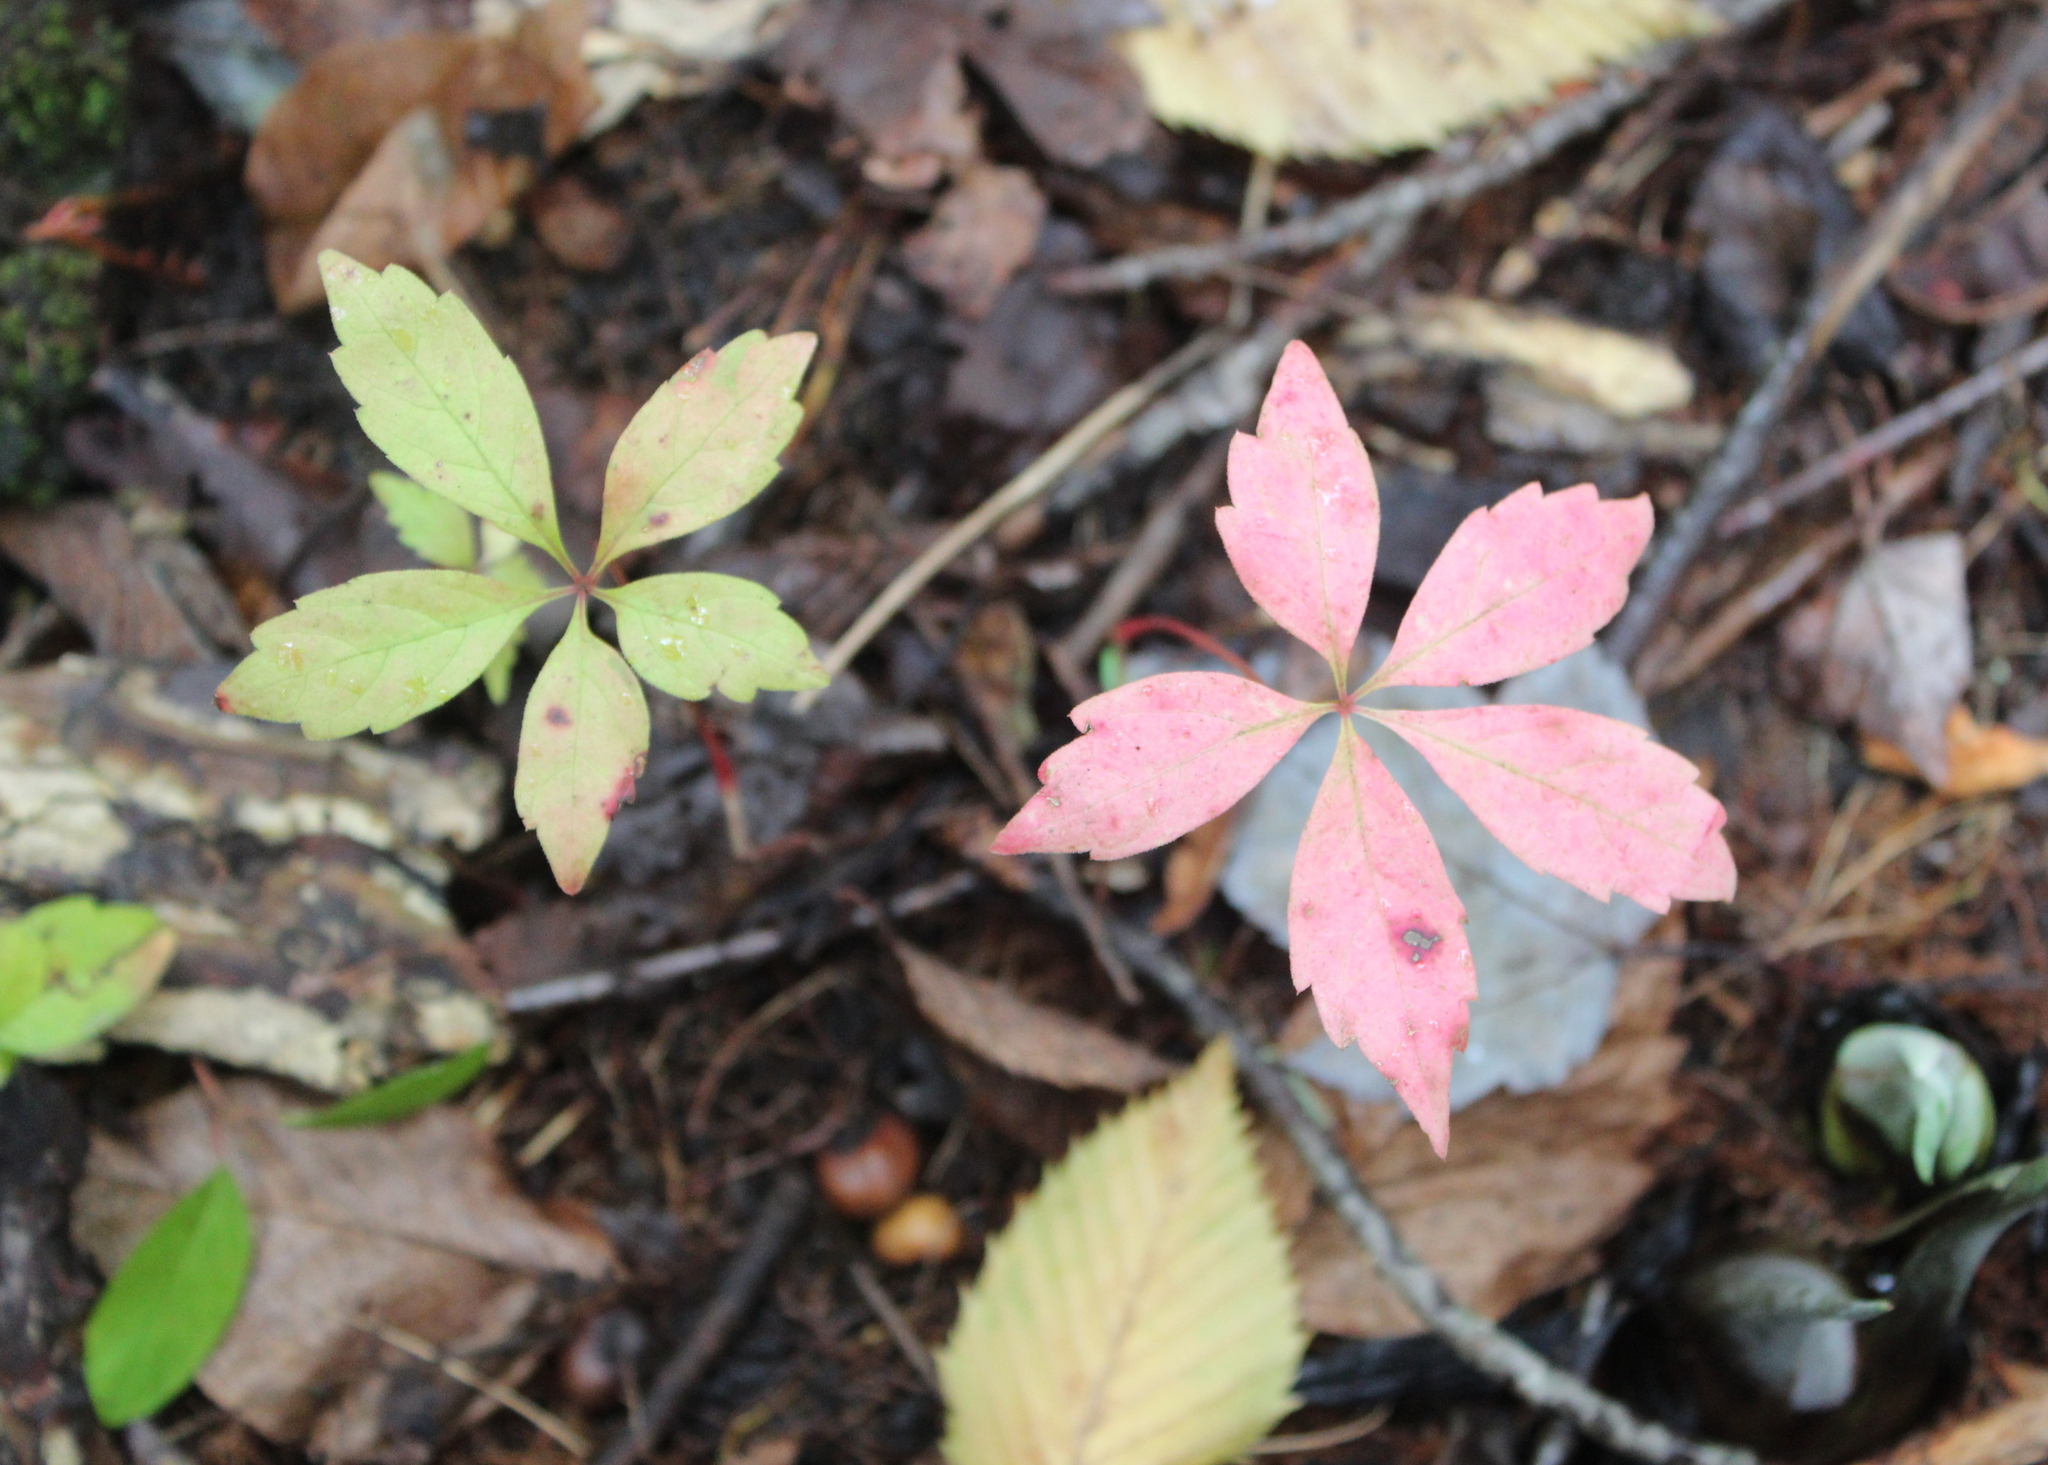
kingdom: Plantae
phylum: Tracheophyta
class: Magnoliopsida
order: Vitales
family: Vitaceae
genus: Parthenocissus
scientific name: Parthenocissus quinquefolia
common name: Virginia-creeper
